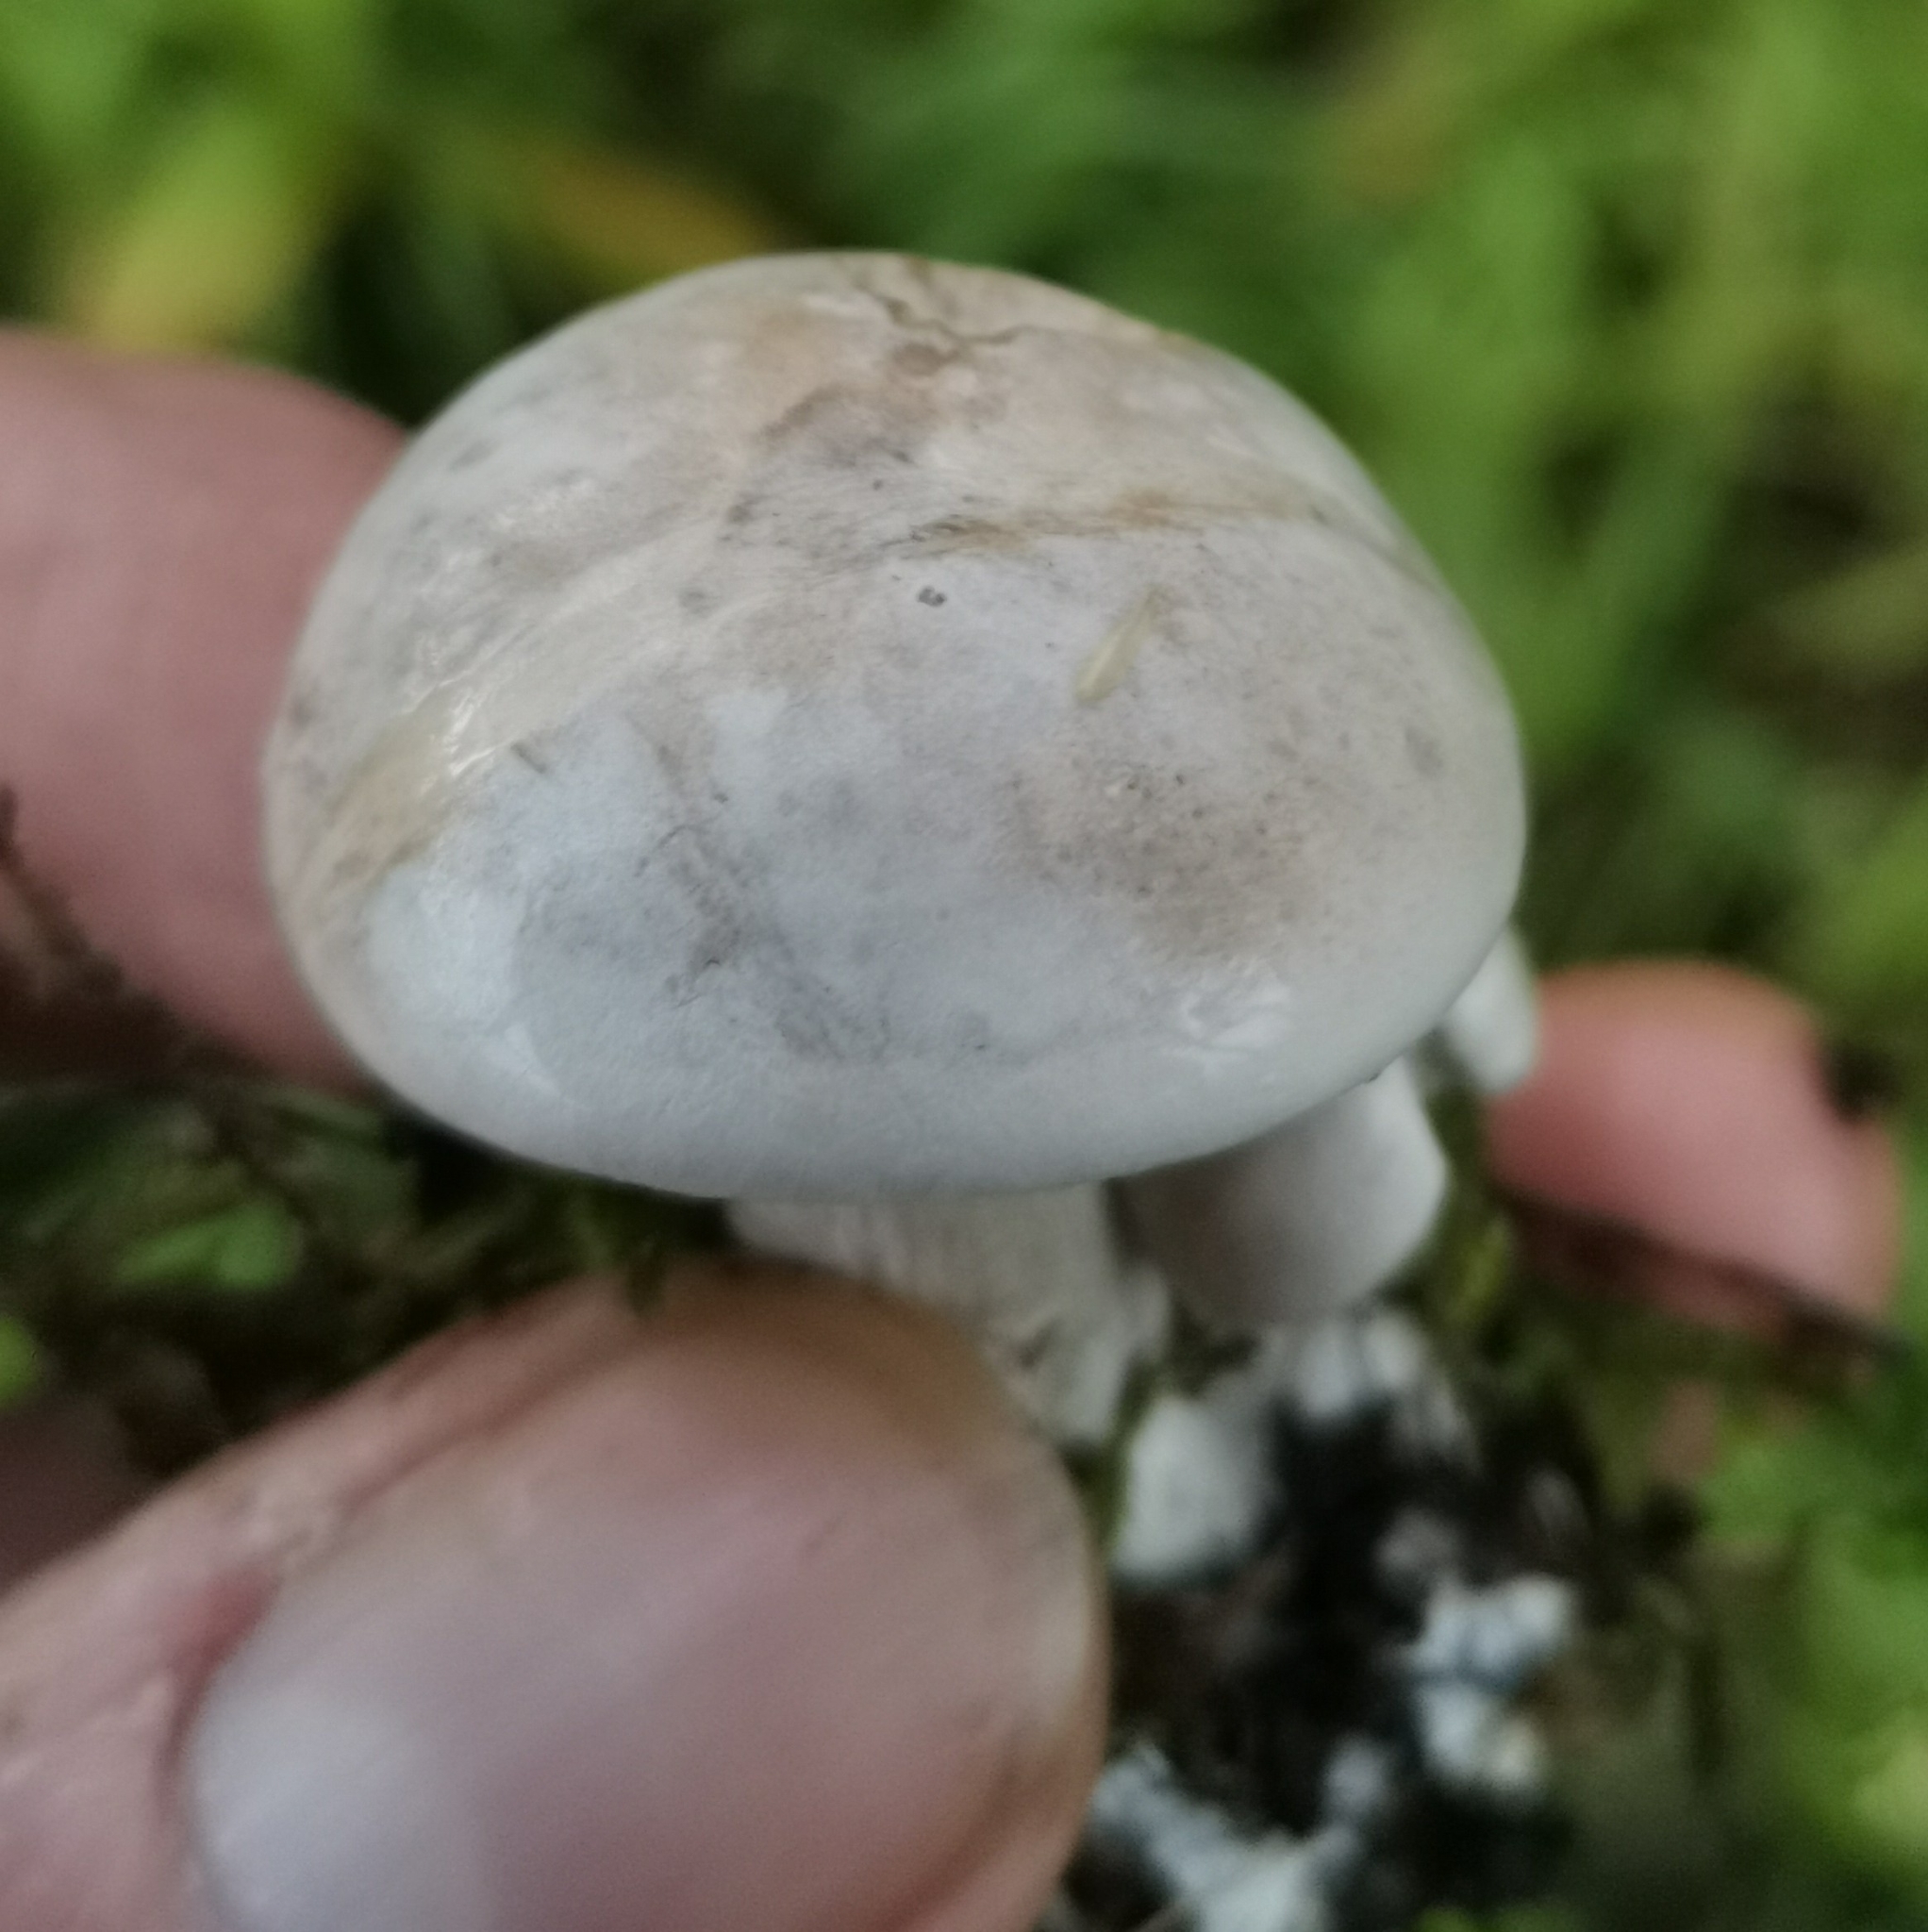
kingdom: Fungi
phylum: Basidiomycota
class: Agaricomycetes
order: Agaricales
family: Entolomataceae
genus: Clitopilus
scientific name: Clitopilus prunulus
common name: The miller
